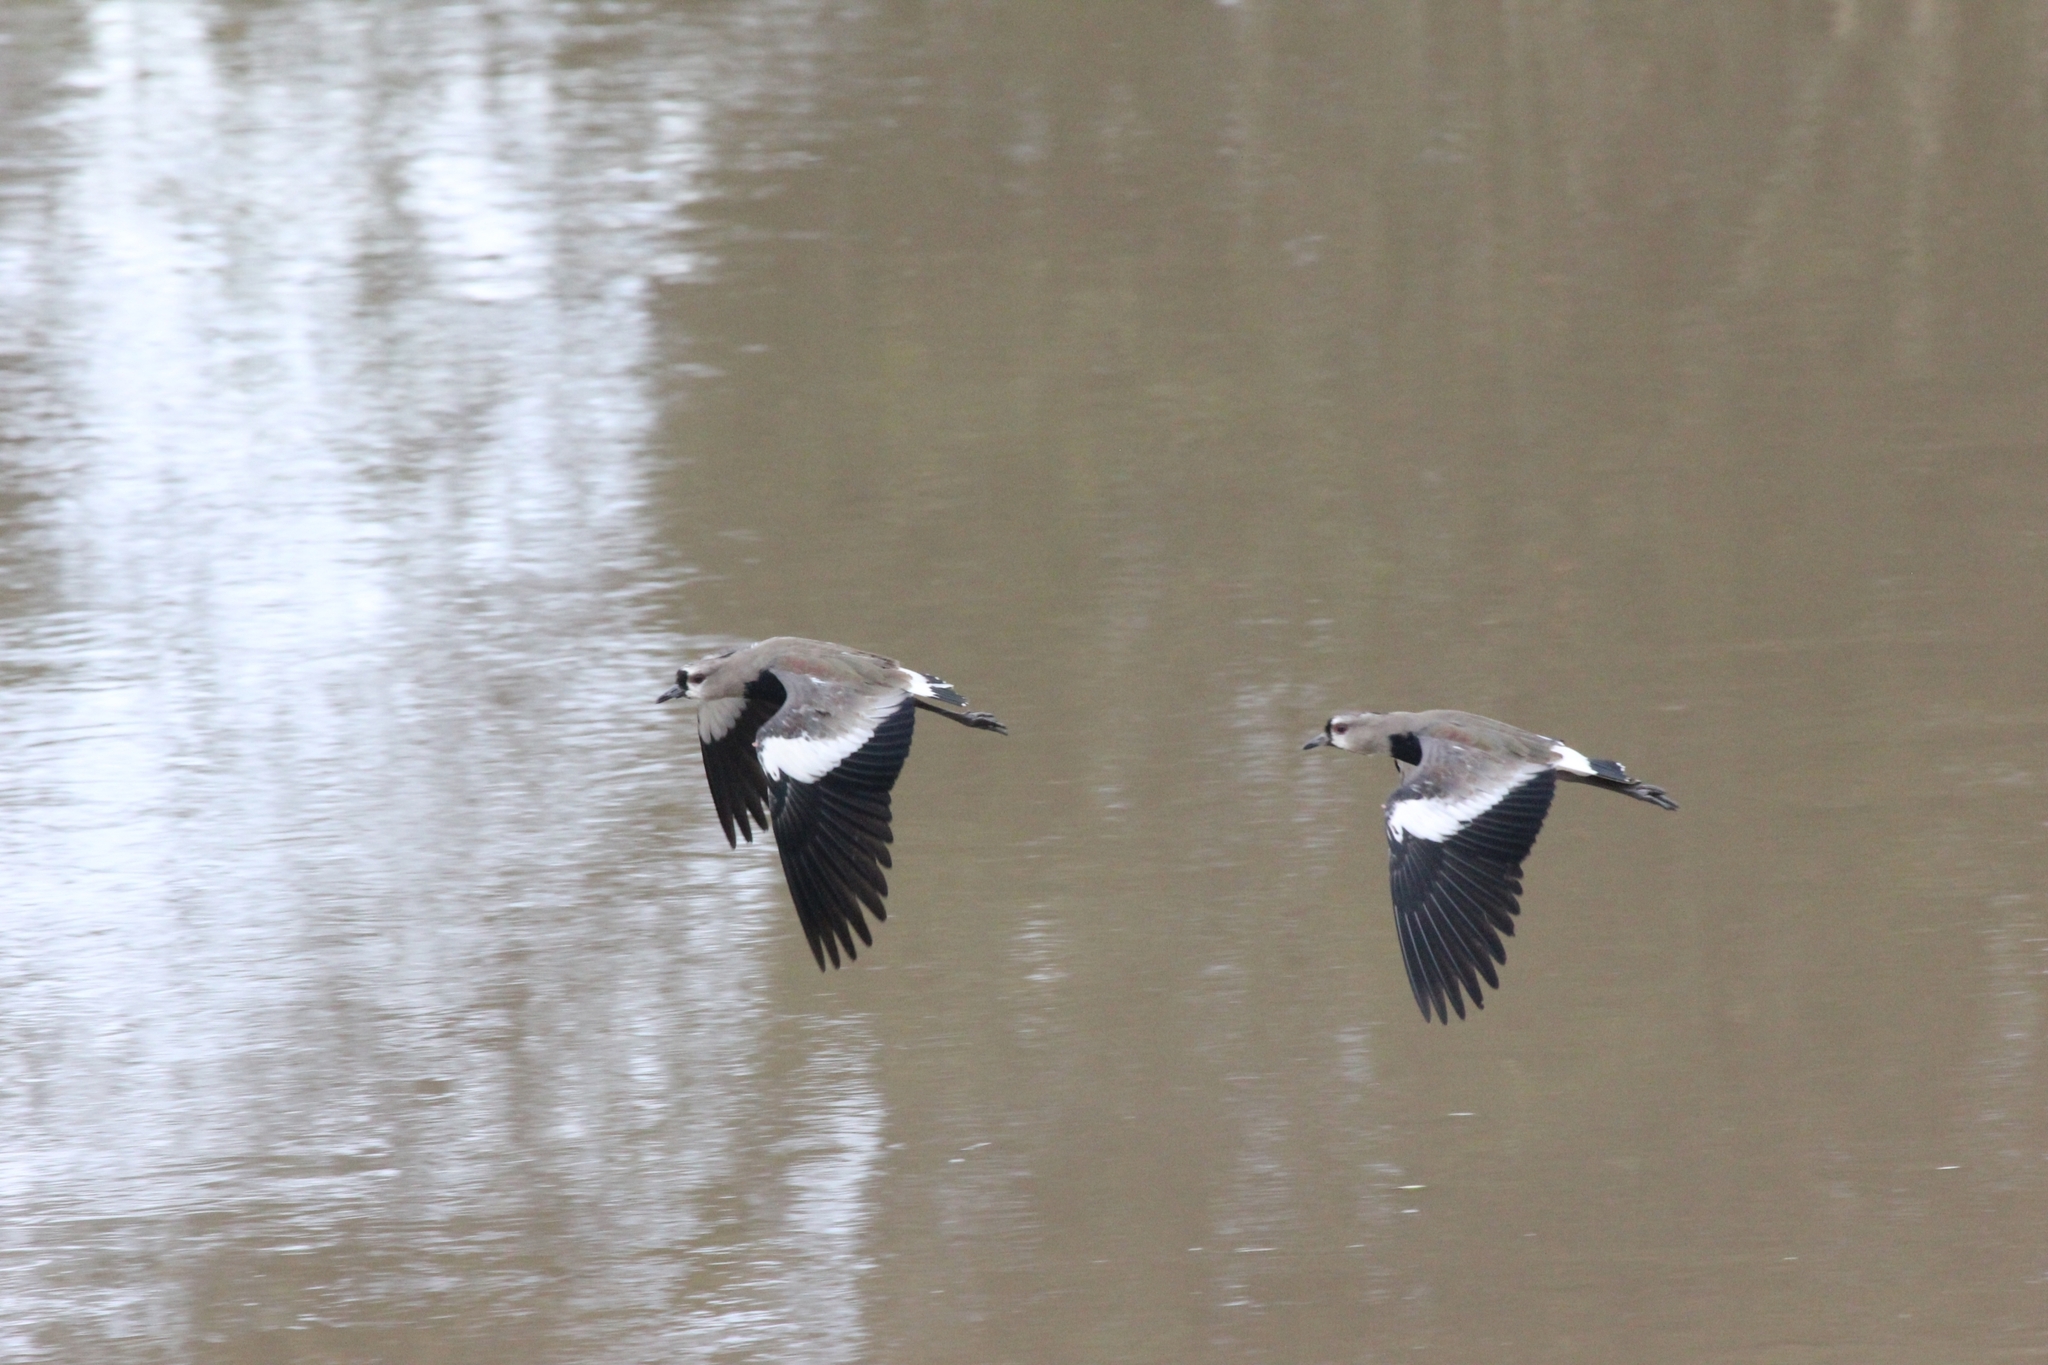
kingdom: Animalia
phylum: Chordata
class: Aves
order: Charadriiformes
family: Charadriidae
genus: Vanellus
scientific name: Vanellus chilensis
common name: Southern lapwing
